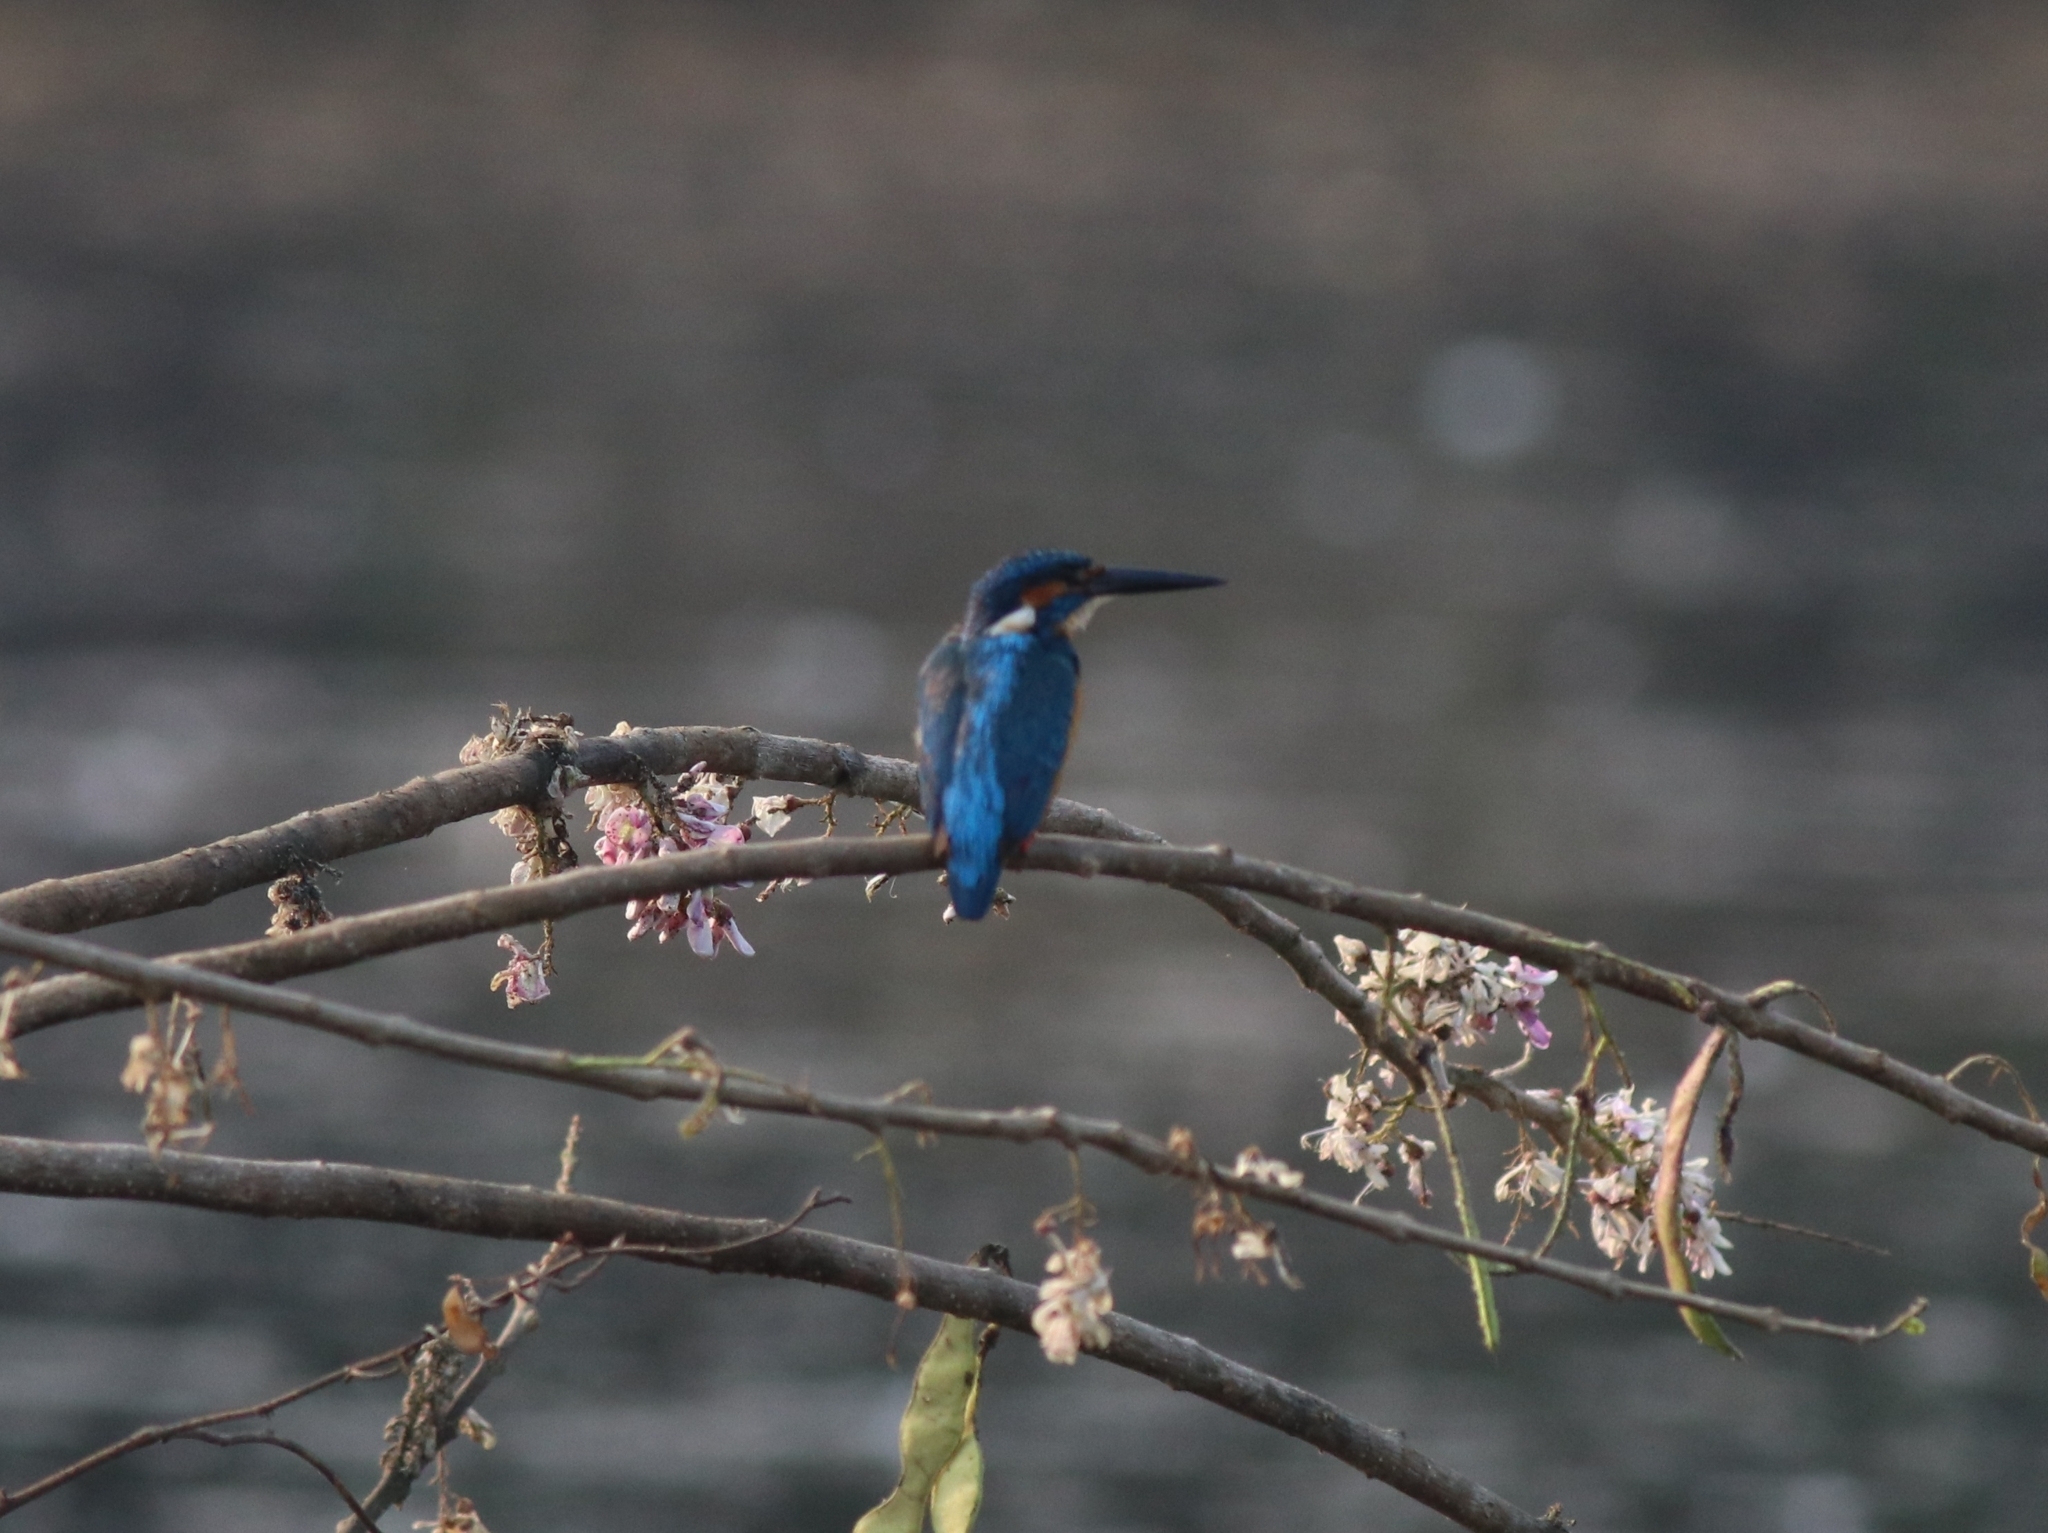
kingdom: Animalia
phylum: Chordata
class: Aves
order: Coraciiformes
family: Alcedinidae
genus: Alcedo
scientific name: Alcedo atthis
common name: Common kingfisher
